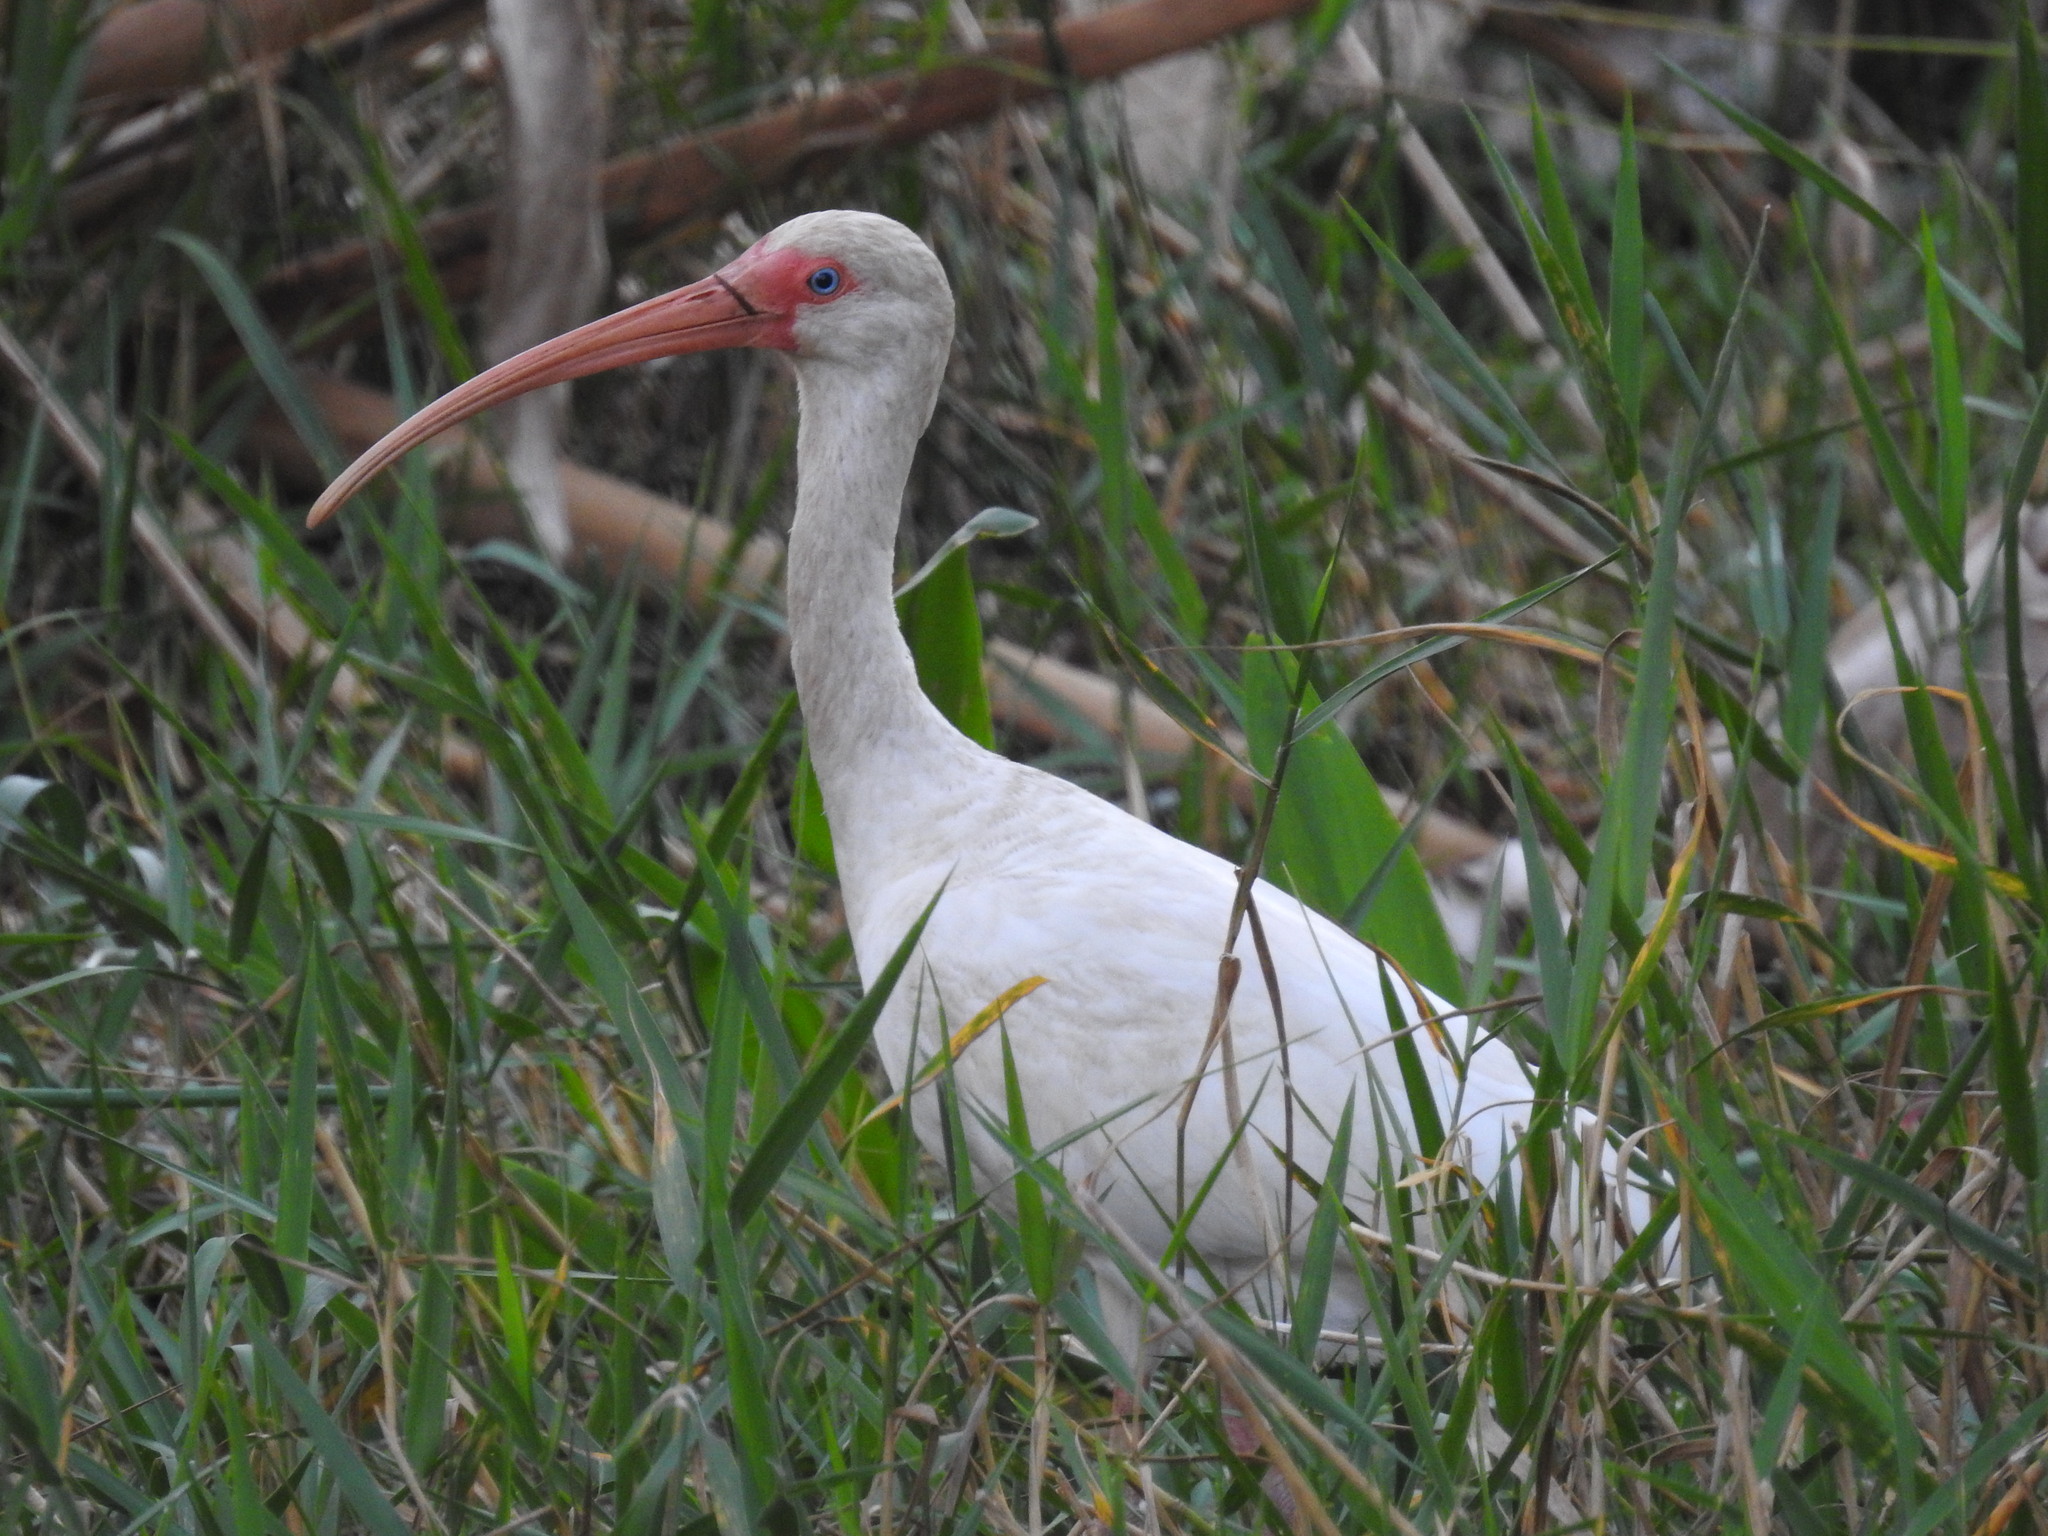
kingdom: Animalia
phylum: Chordata
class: Aves
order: Pelecaniformes
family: Threskiornithidae
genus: Eudocimus
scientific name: Eudocimus albus
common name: White ibis
